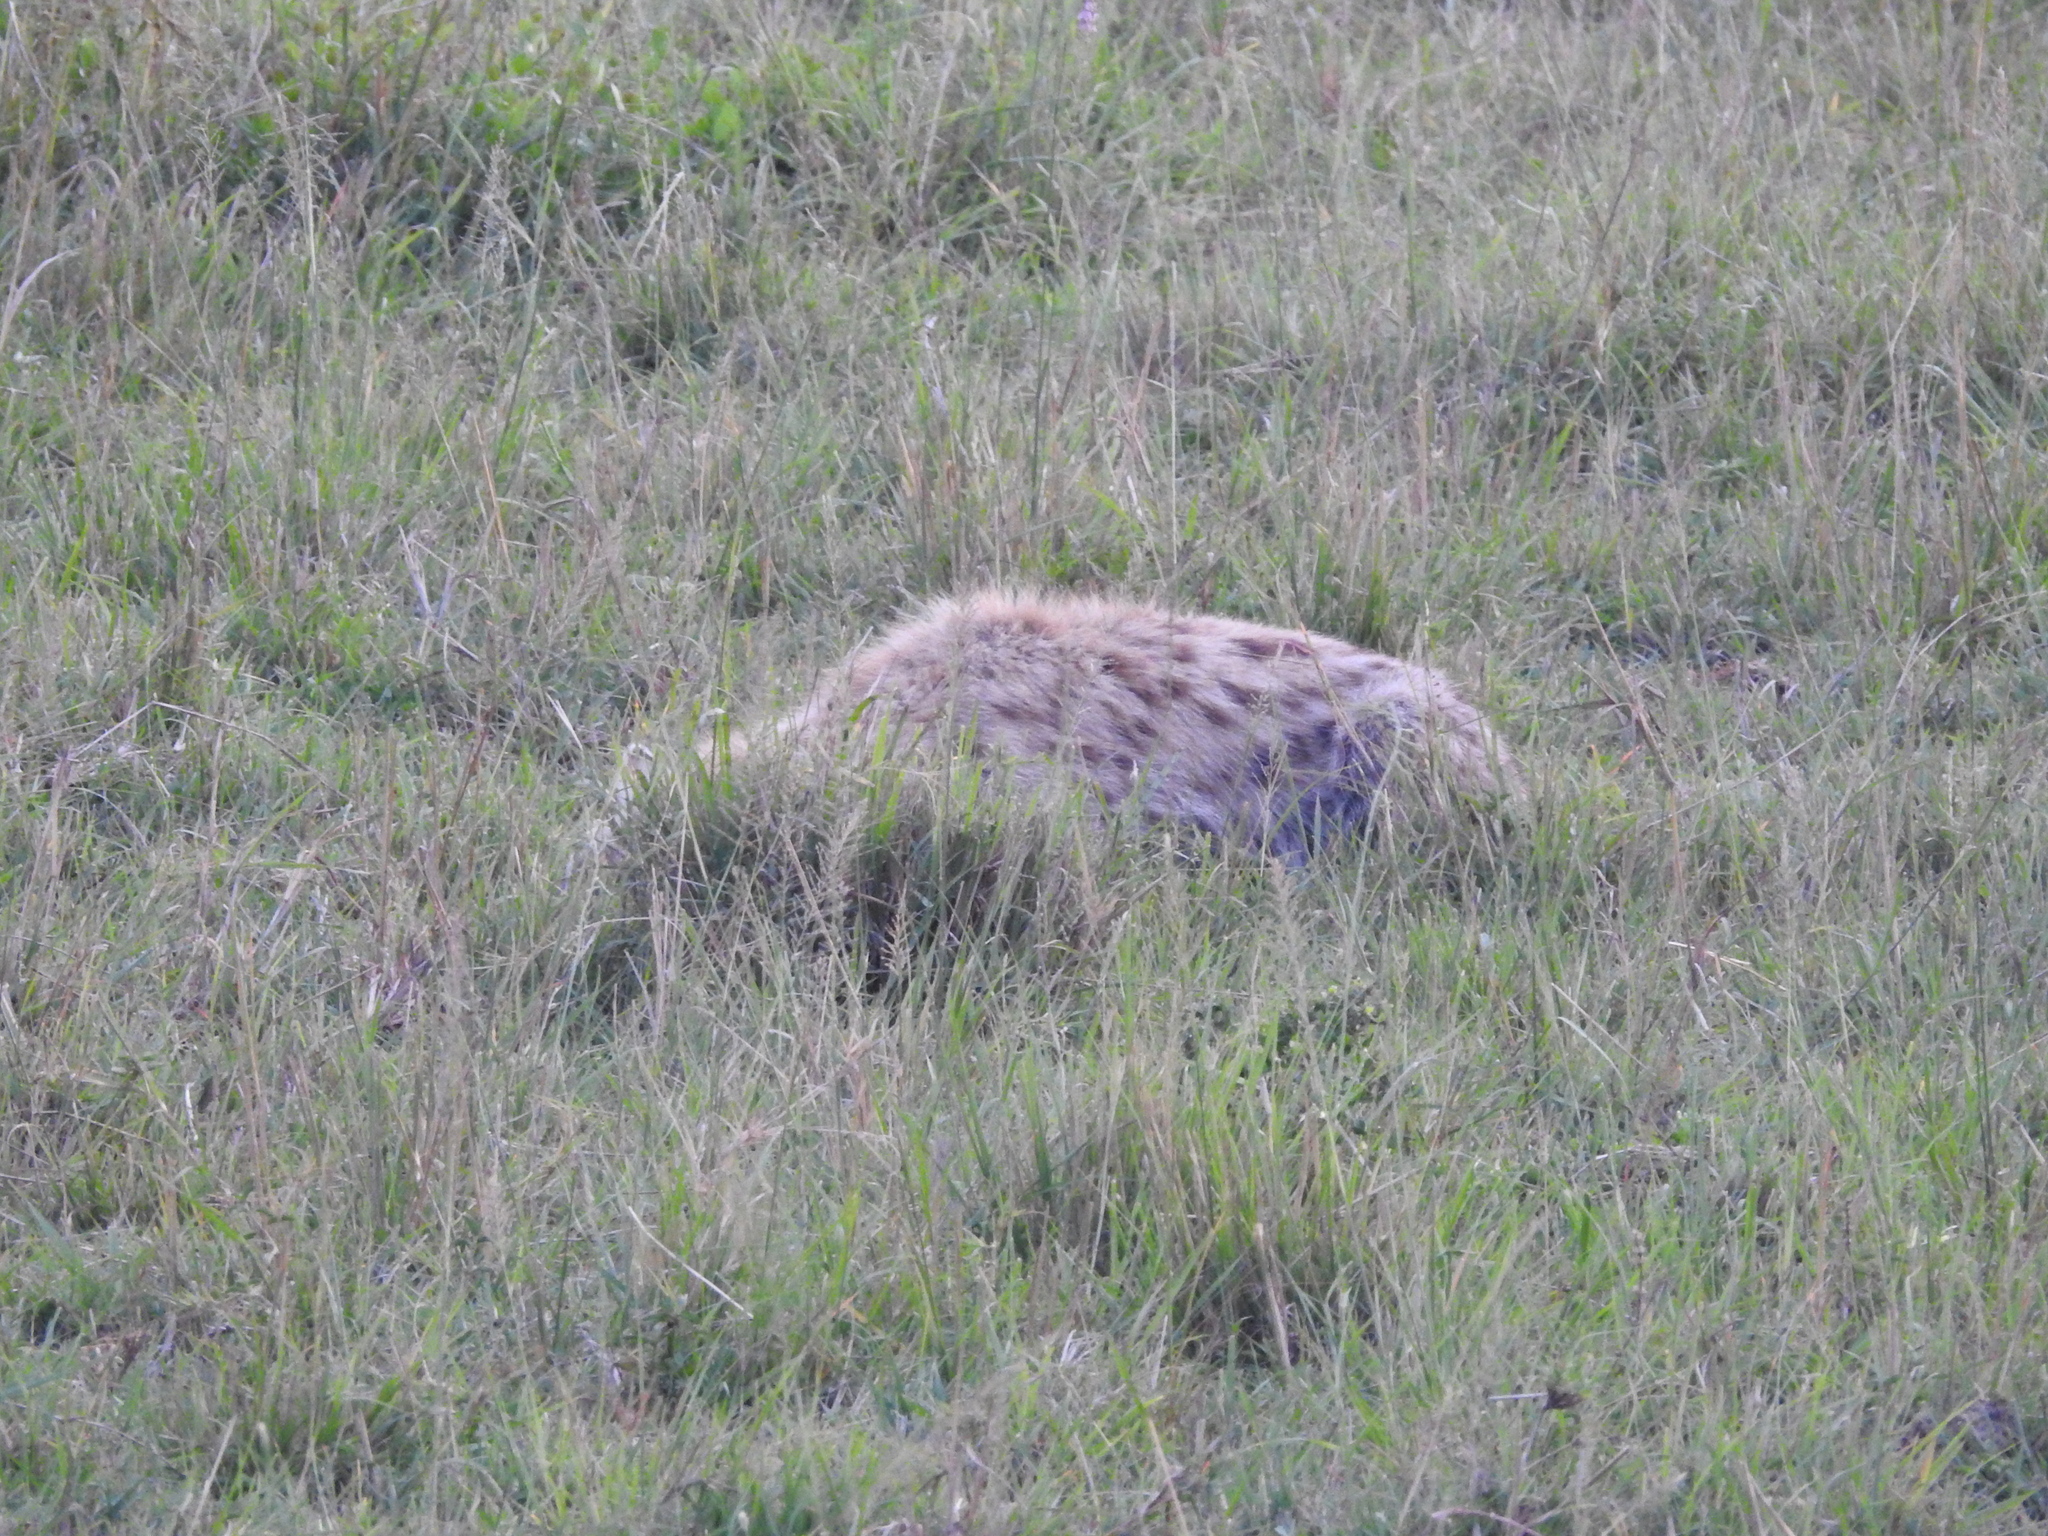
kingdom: Animalia
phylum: Chordata
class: Mammalia
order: Carnivora
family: Hyaenidae
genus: Crocuta
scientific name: Crocuta crocuta
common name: Spotted hyaena
